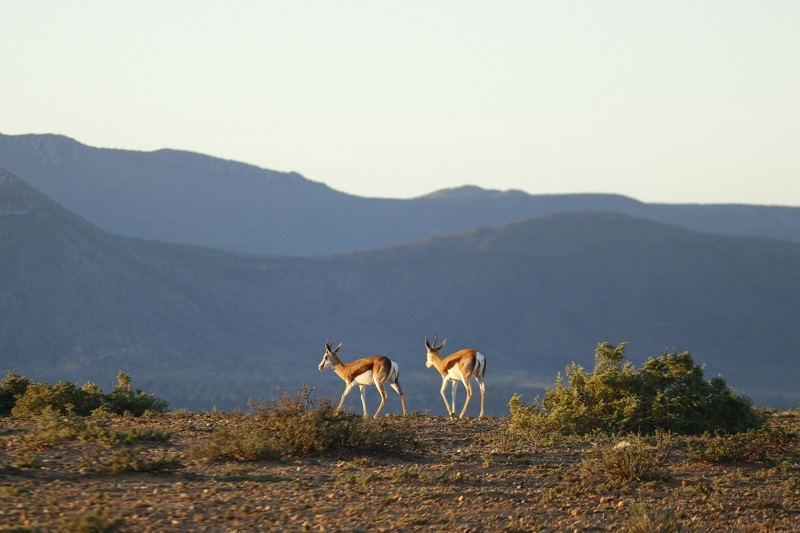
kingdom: Animalia
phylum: Chordata
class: Mammalia
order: Artiodactyla
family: Bovidae
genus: Antidorcas
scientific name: Antidorcas marsupialis
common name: Springbok
